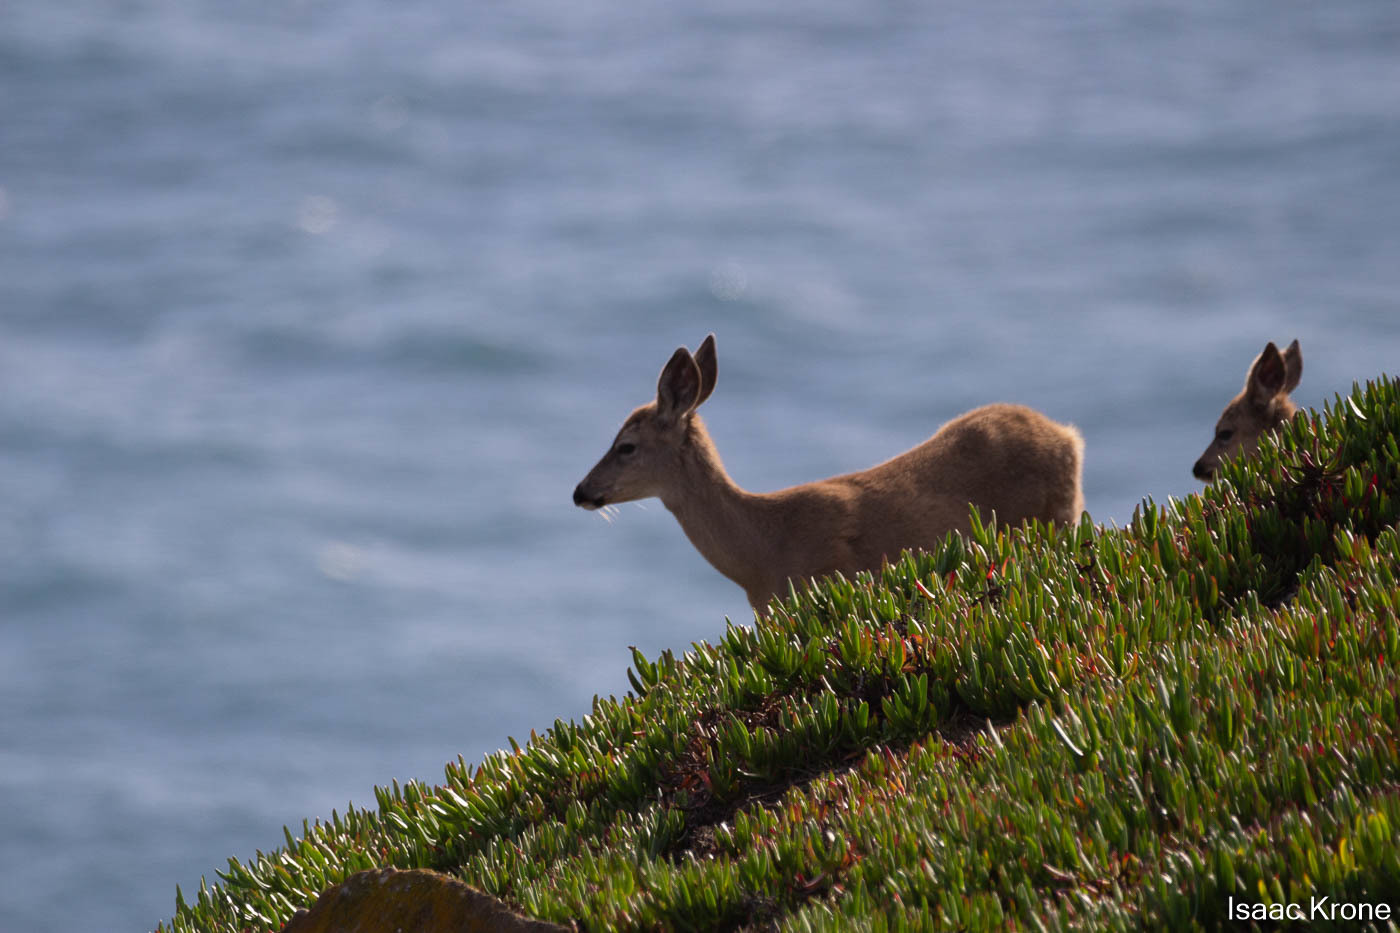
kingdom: Animalia
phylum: Chordata
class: Mammalia
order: Artiodactyla
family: Cervidae
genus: Odocoileus
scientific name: Odocoileus hemionus
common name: Mule deer
